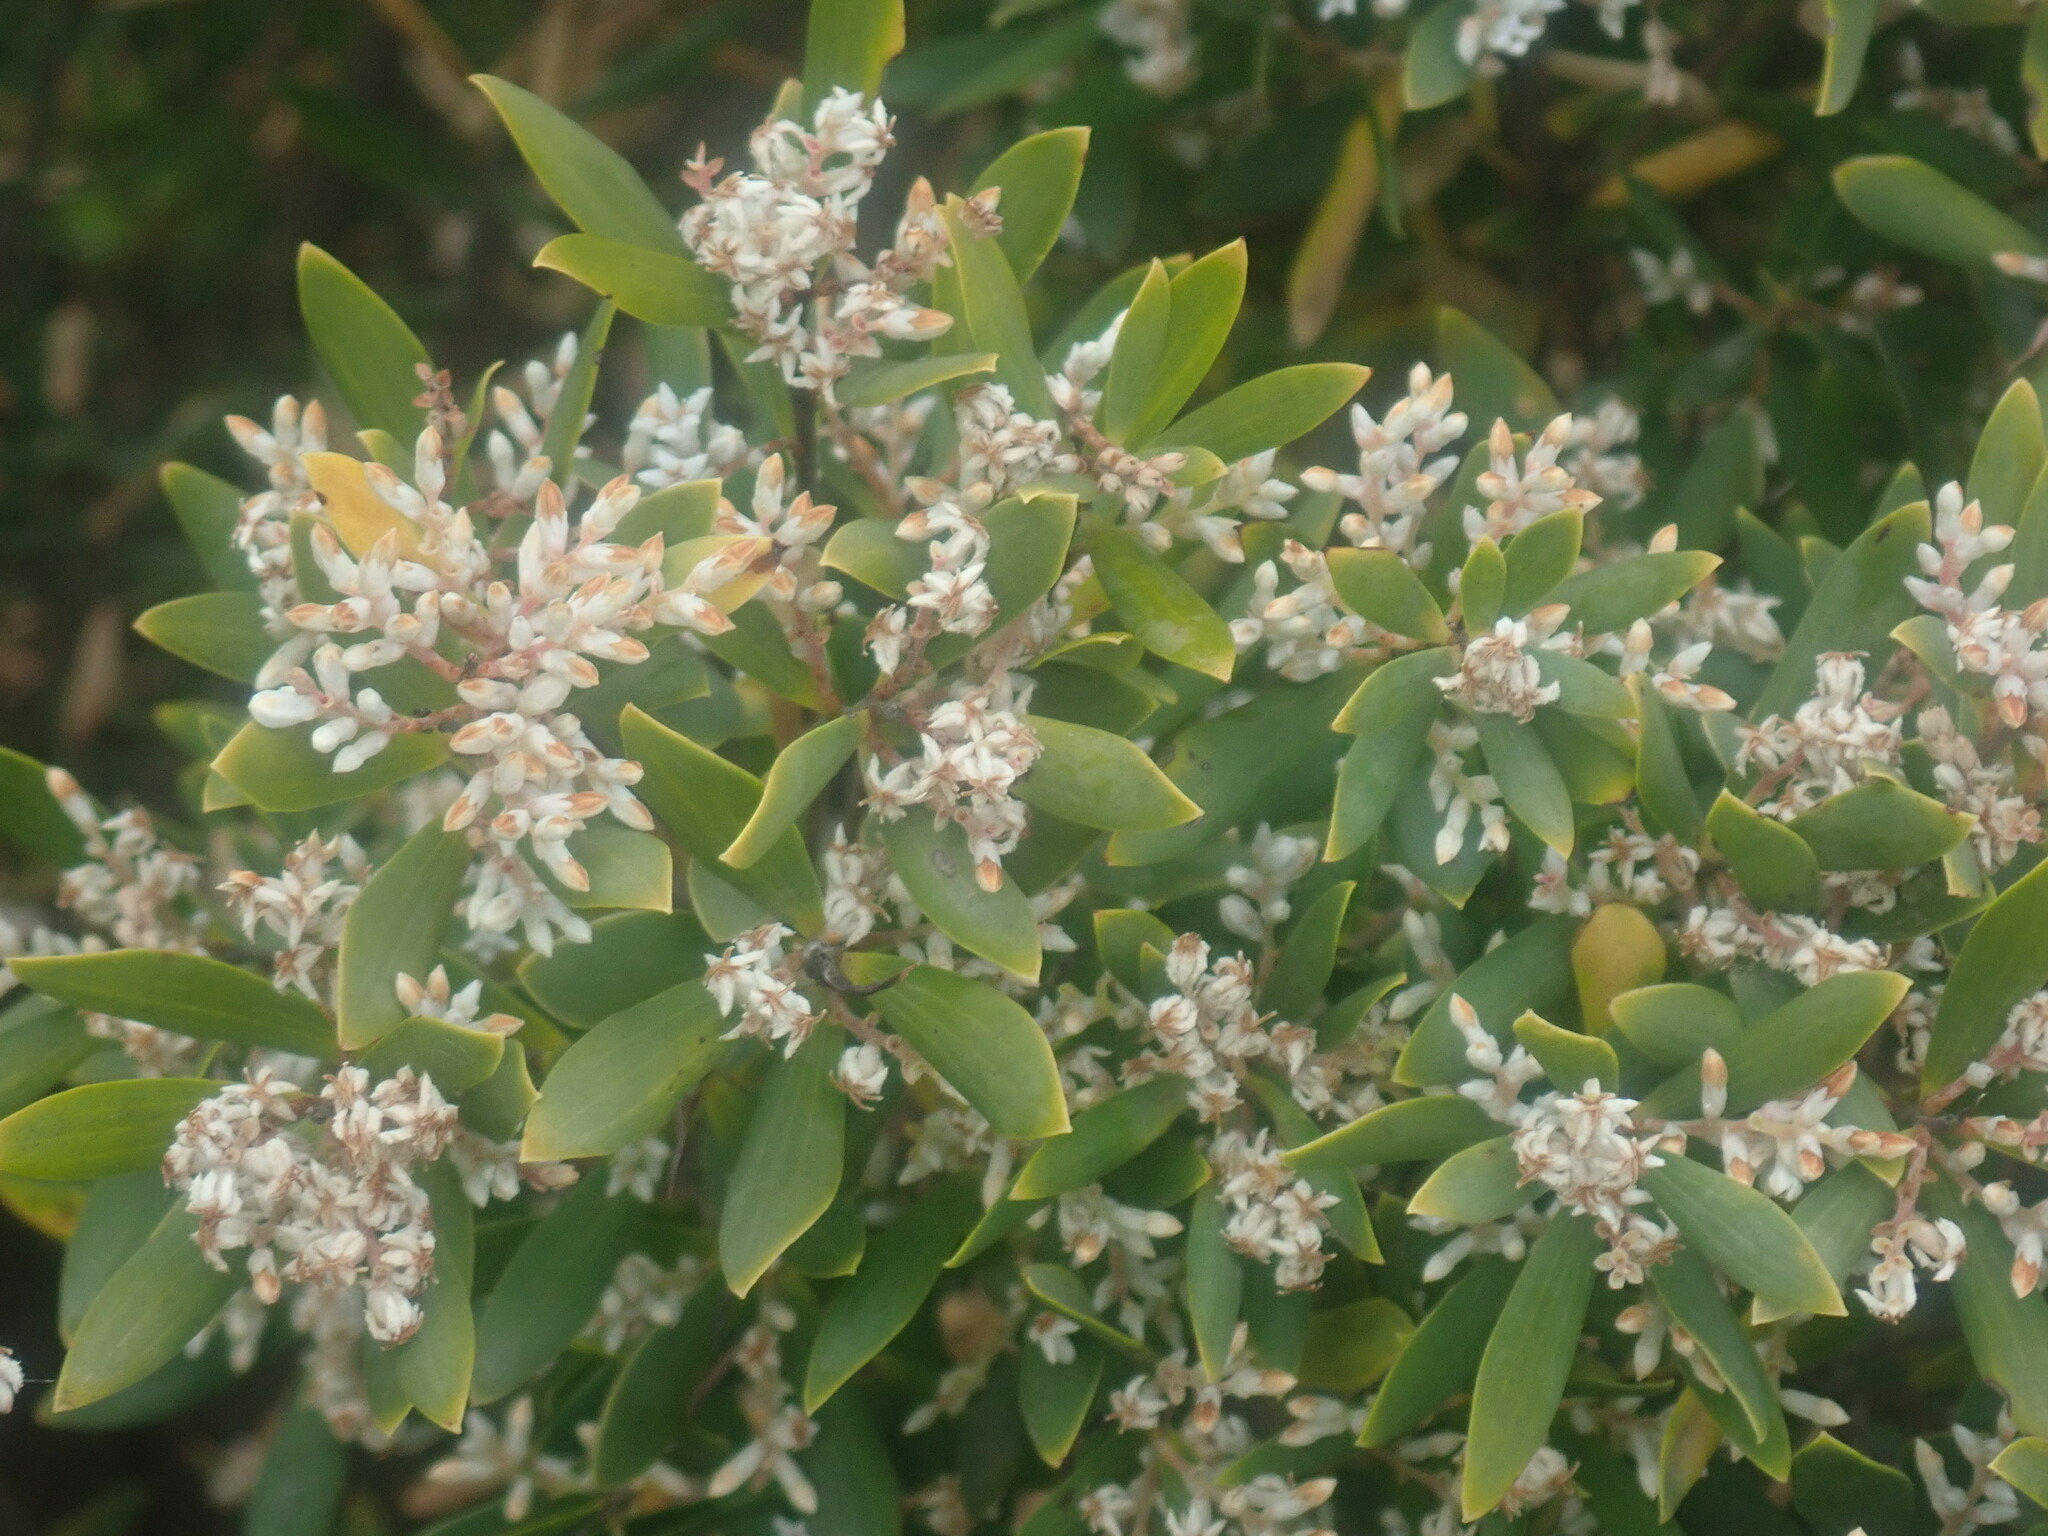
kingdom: Plantae
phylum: Tracheophyta
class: Magnoliopsida
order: Ericales
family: Ericaceae
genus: Leptecophylla
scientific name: Leptecophylla parvifolia
